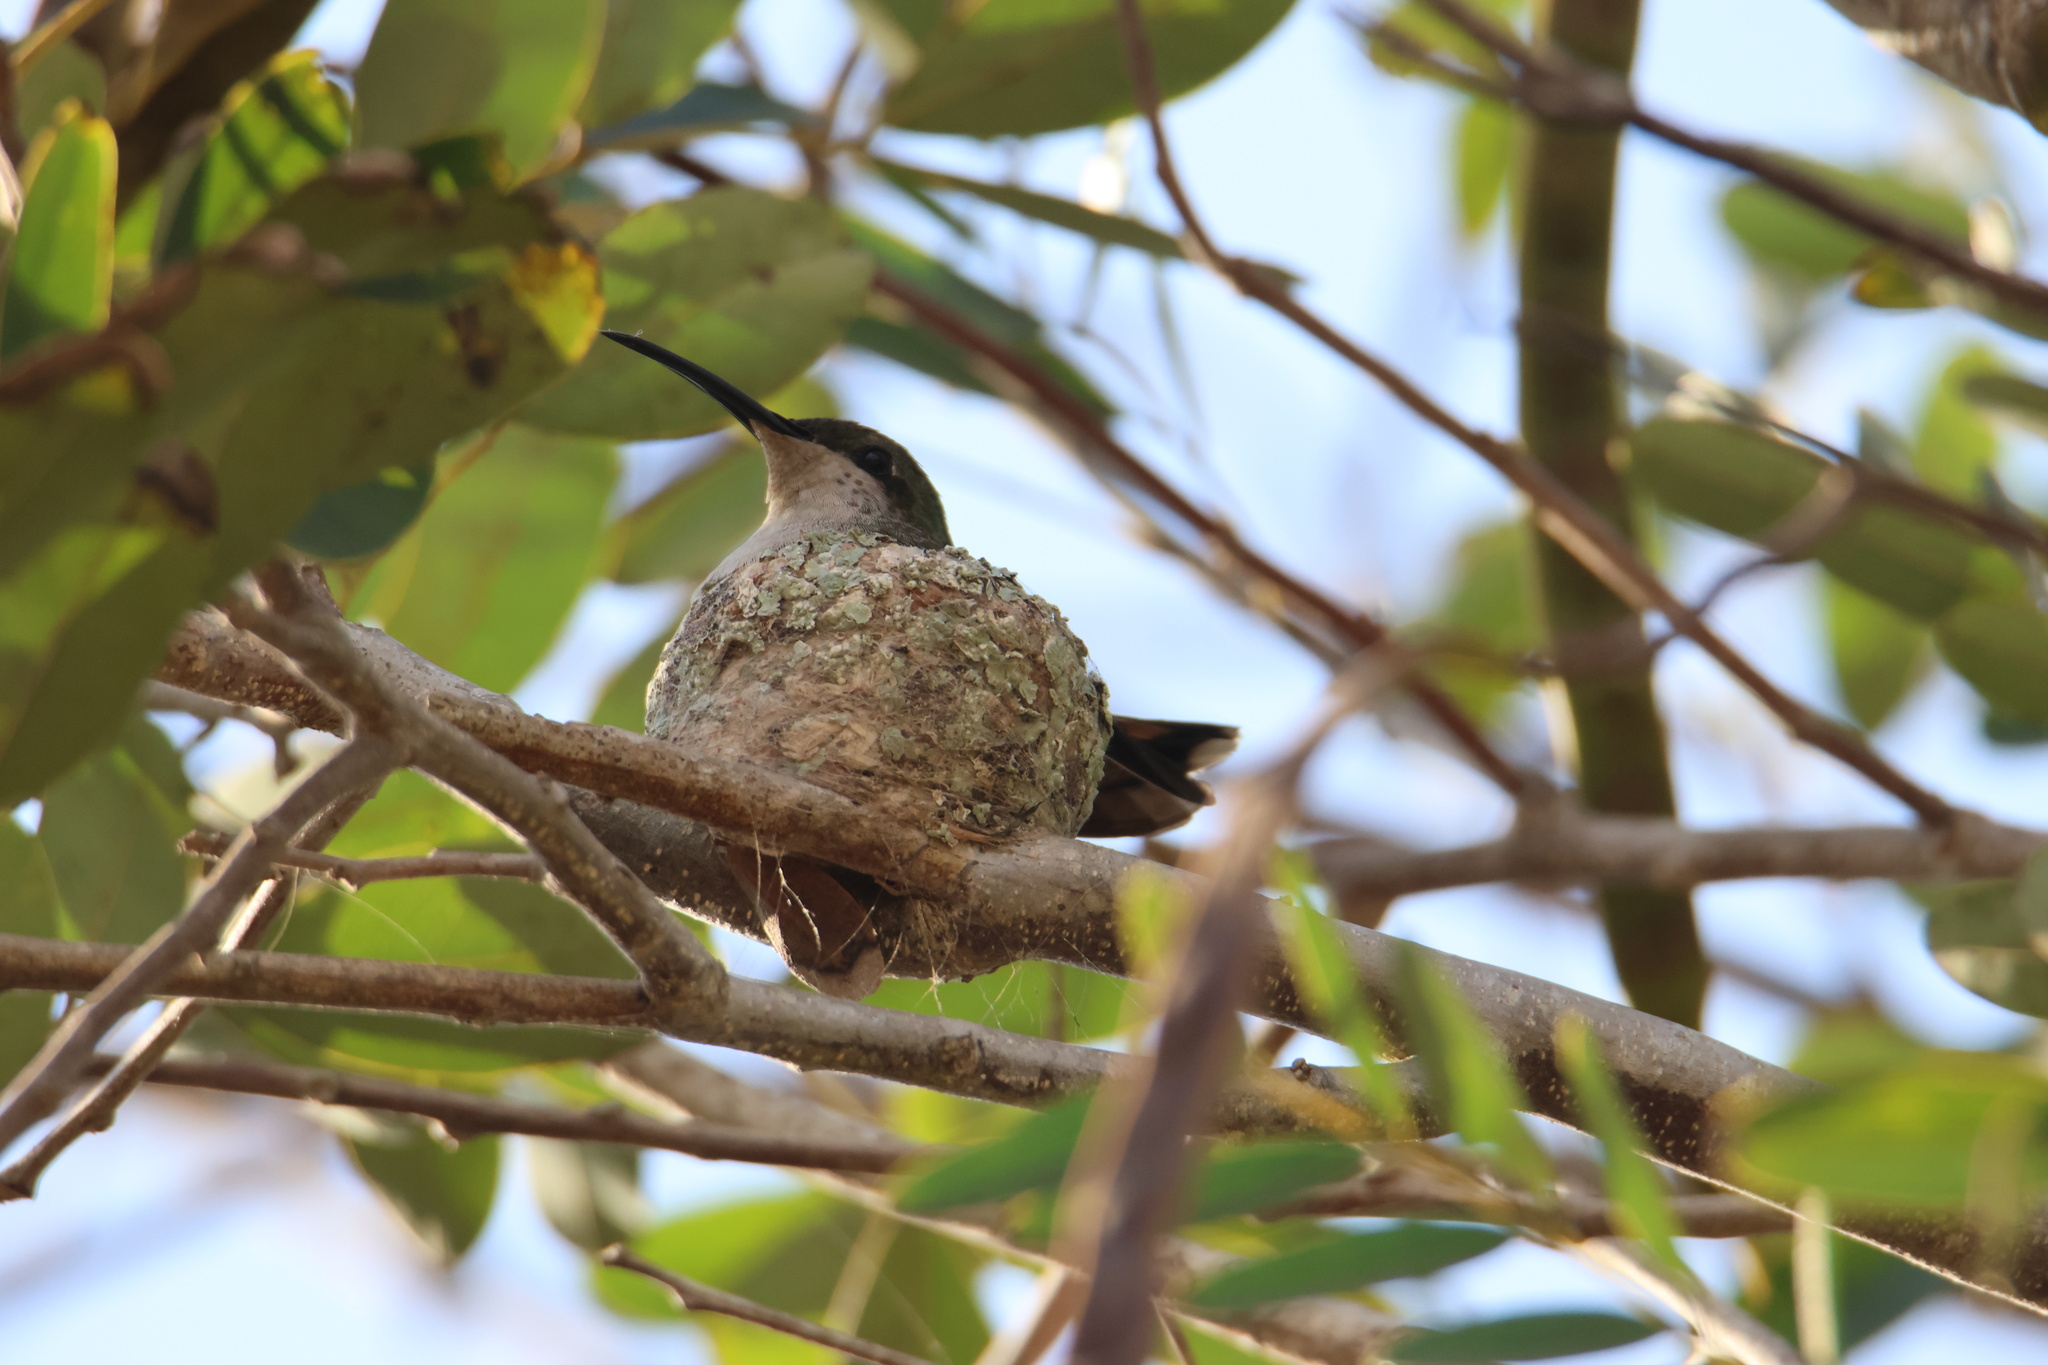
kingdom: Animalia
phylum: Chordata
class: Aves
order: Apodiformes
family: Trochilidae
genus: Anthracothorax
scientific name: Anthracothorax dominicus
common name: Antillean mango
